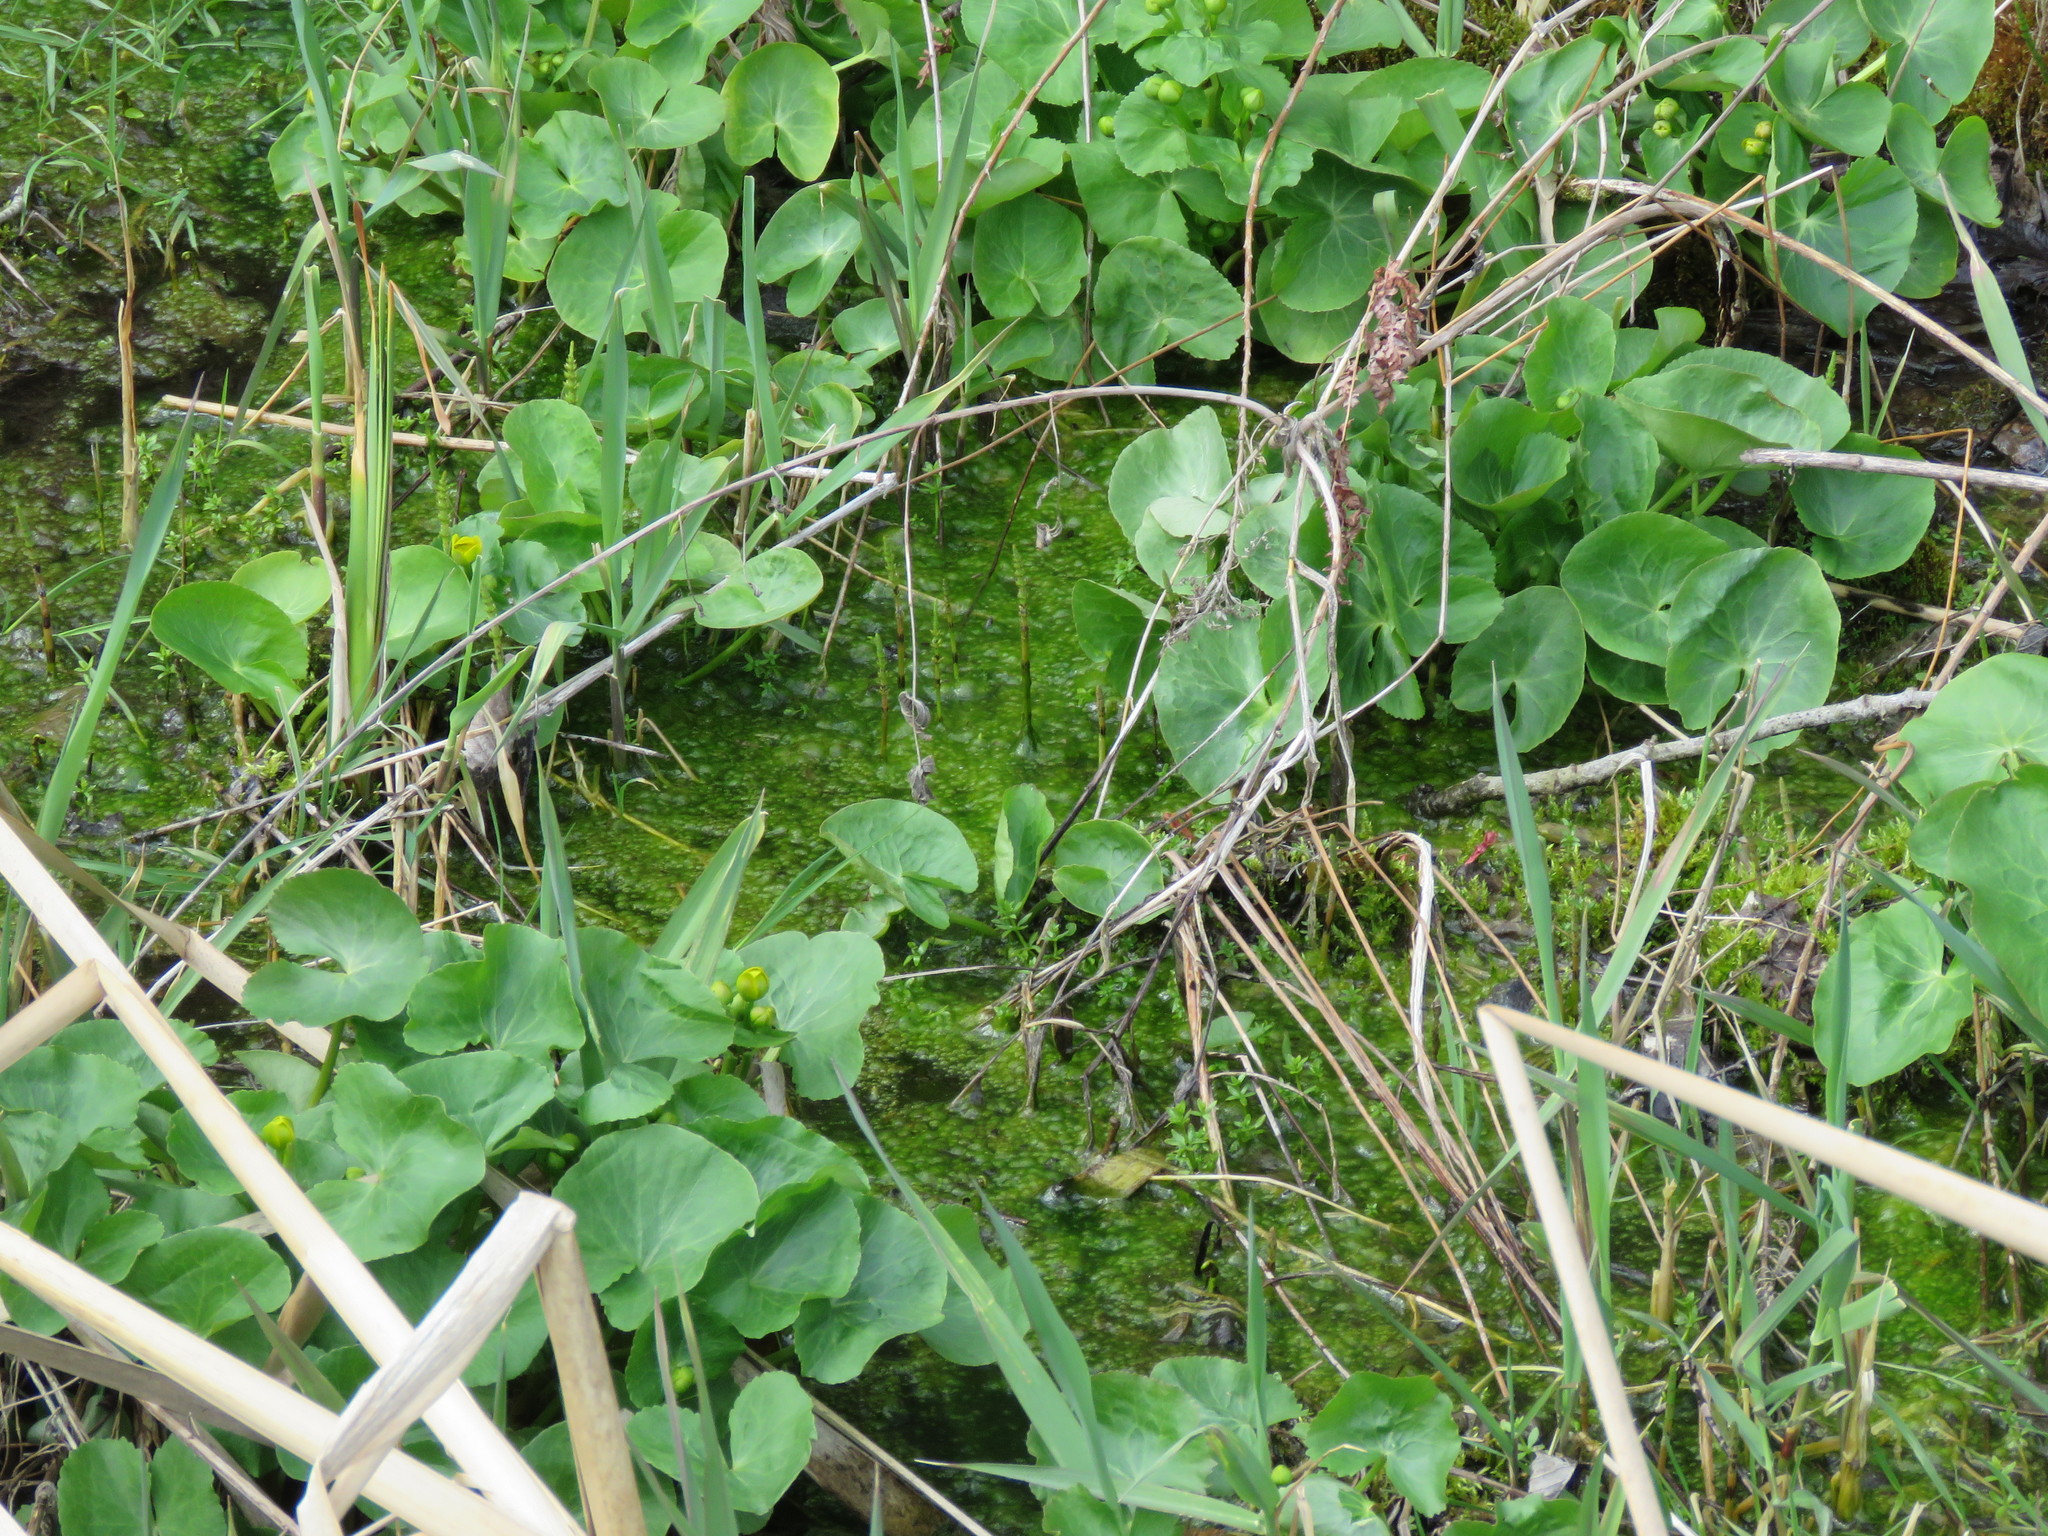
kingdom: Plantae
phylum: Tracheophyta
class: Magnoliopsida
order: Ranunculales
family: Ranunculaceae
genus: Caltha
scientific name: Caltha palustris
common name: Marsh marigold
